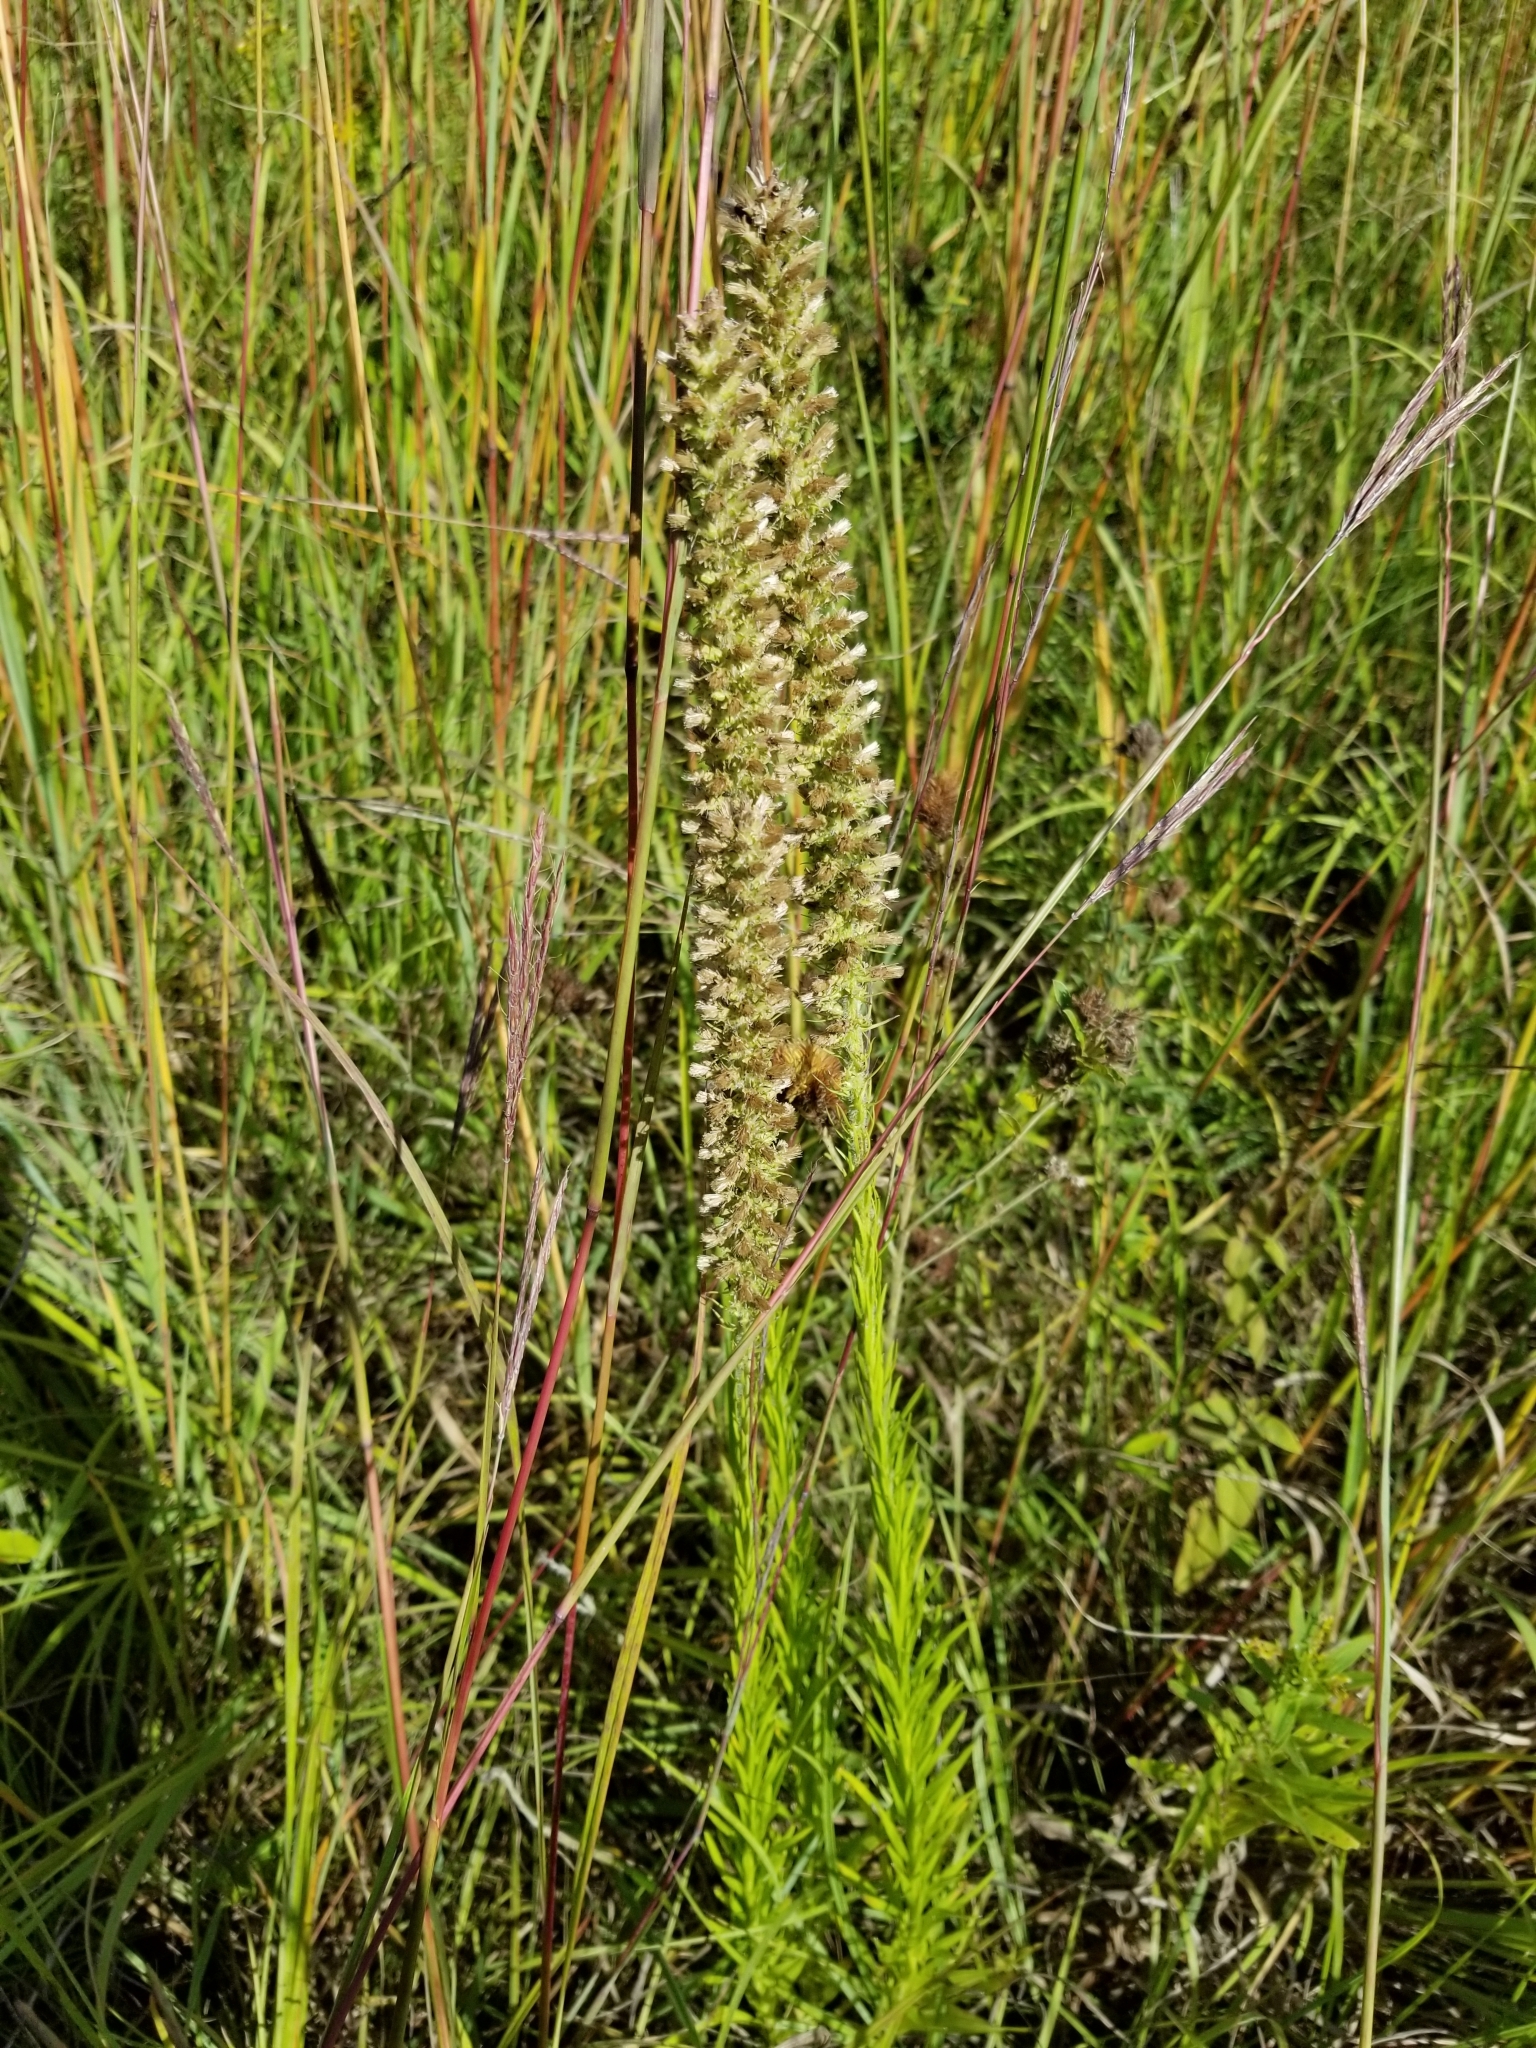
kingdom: Plantae
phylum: Tracheophyta
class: Magnoliopsida
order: Asterales
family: Asteraceae
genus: Liatris
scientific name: Liatris pycnostachya
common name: Cattail gayfeather
